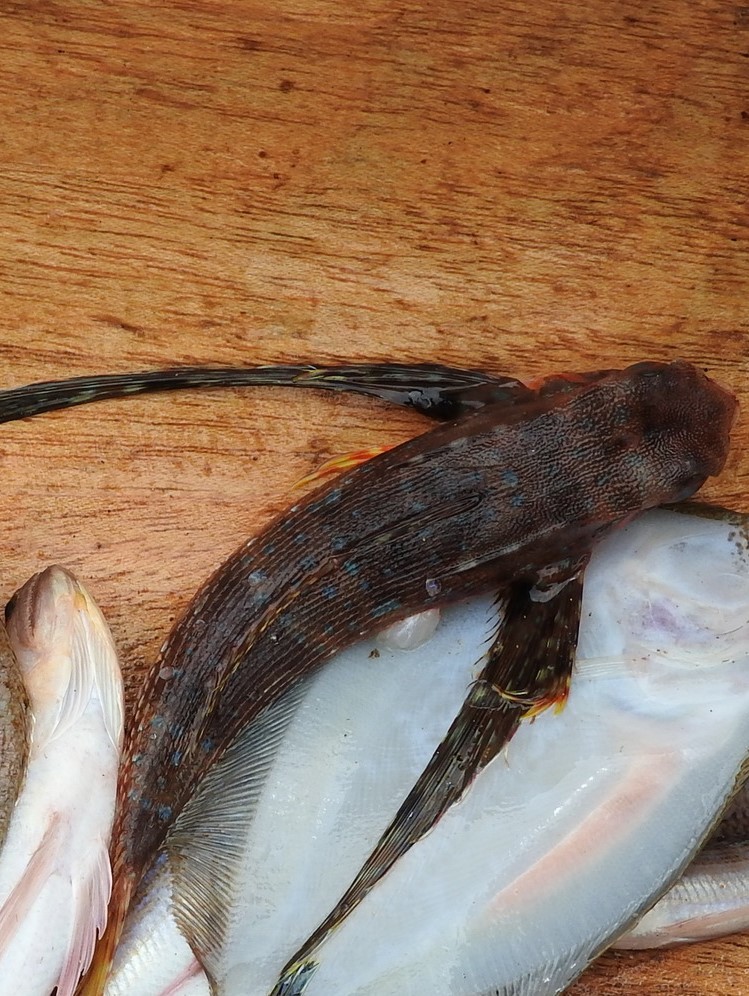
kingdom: Animalia
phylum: Chordata
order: Scorpaeniformes
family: Dactylopteridae
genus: Dactylopterus
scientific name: Dactylopterus volitans
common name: Flying gurnard
